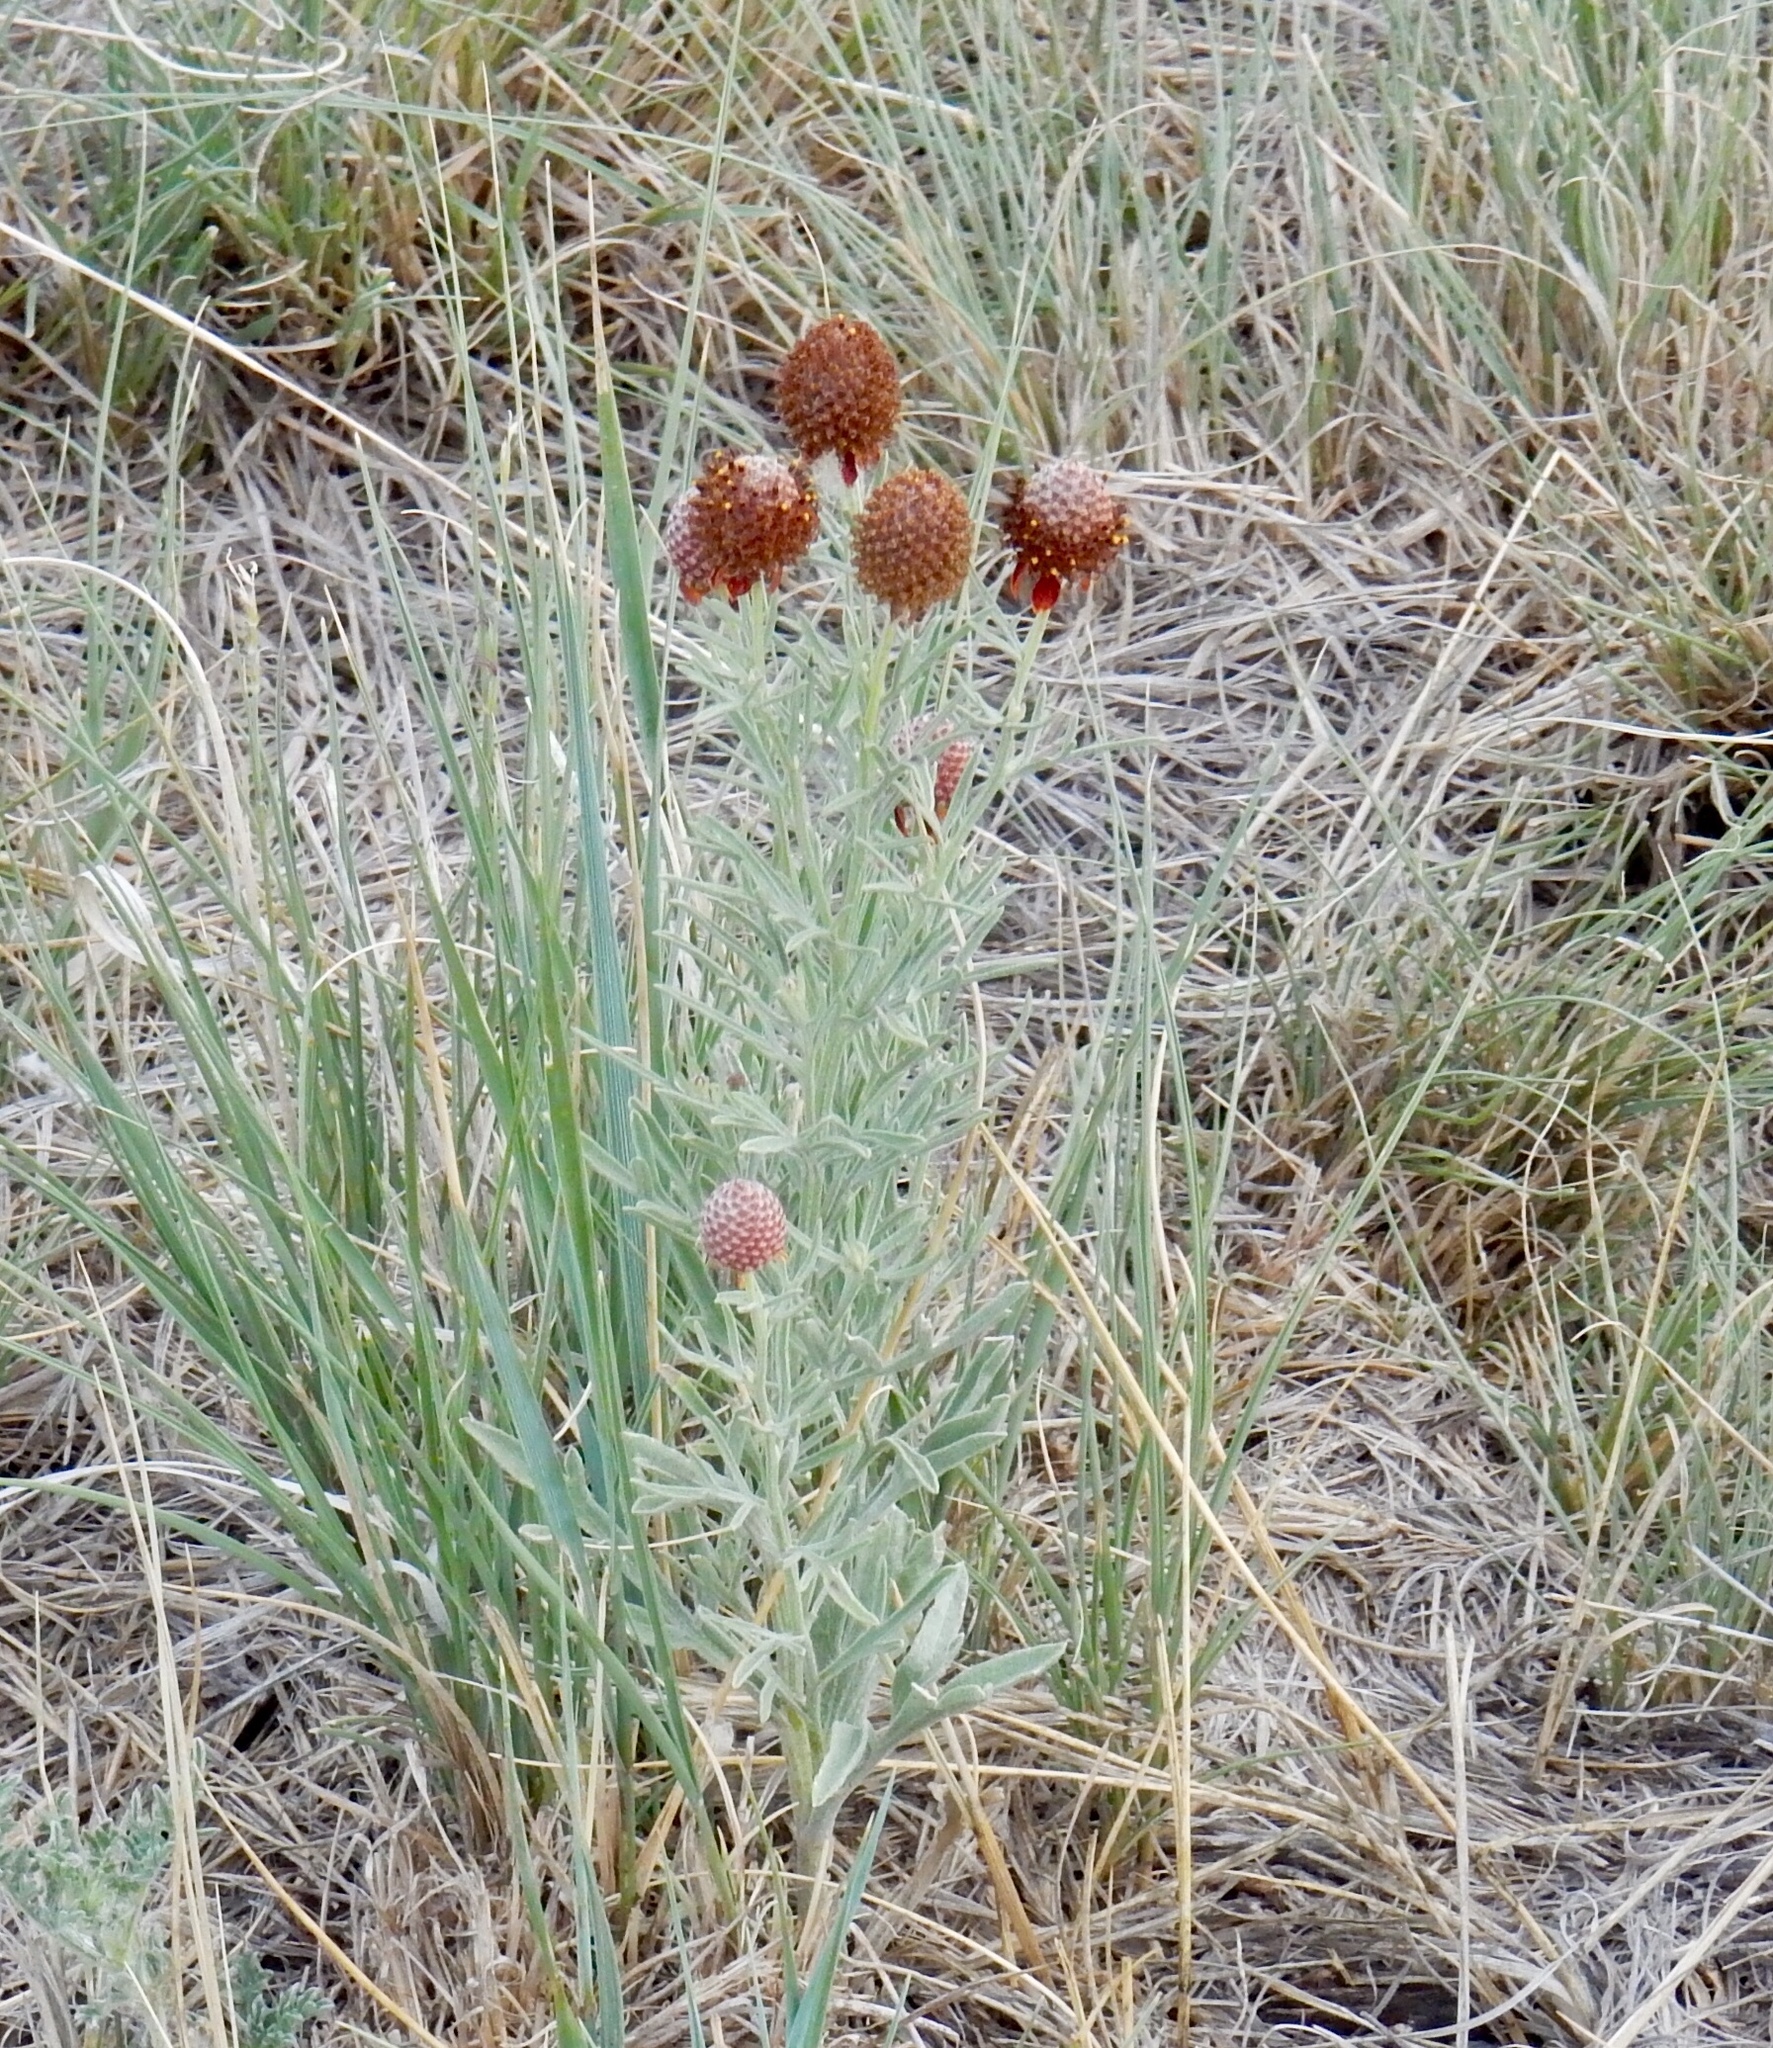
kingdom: Plantae
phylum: Tracheophyta
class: Magnoliopsida
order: Asterales
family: Asteraceae
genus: Ratibida
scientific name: Ratibida tagetes
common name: Green mexican-hat
